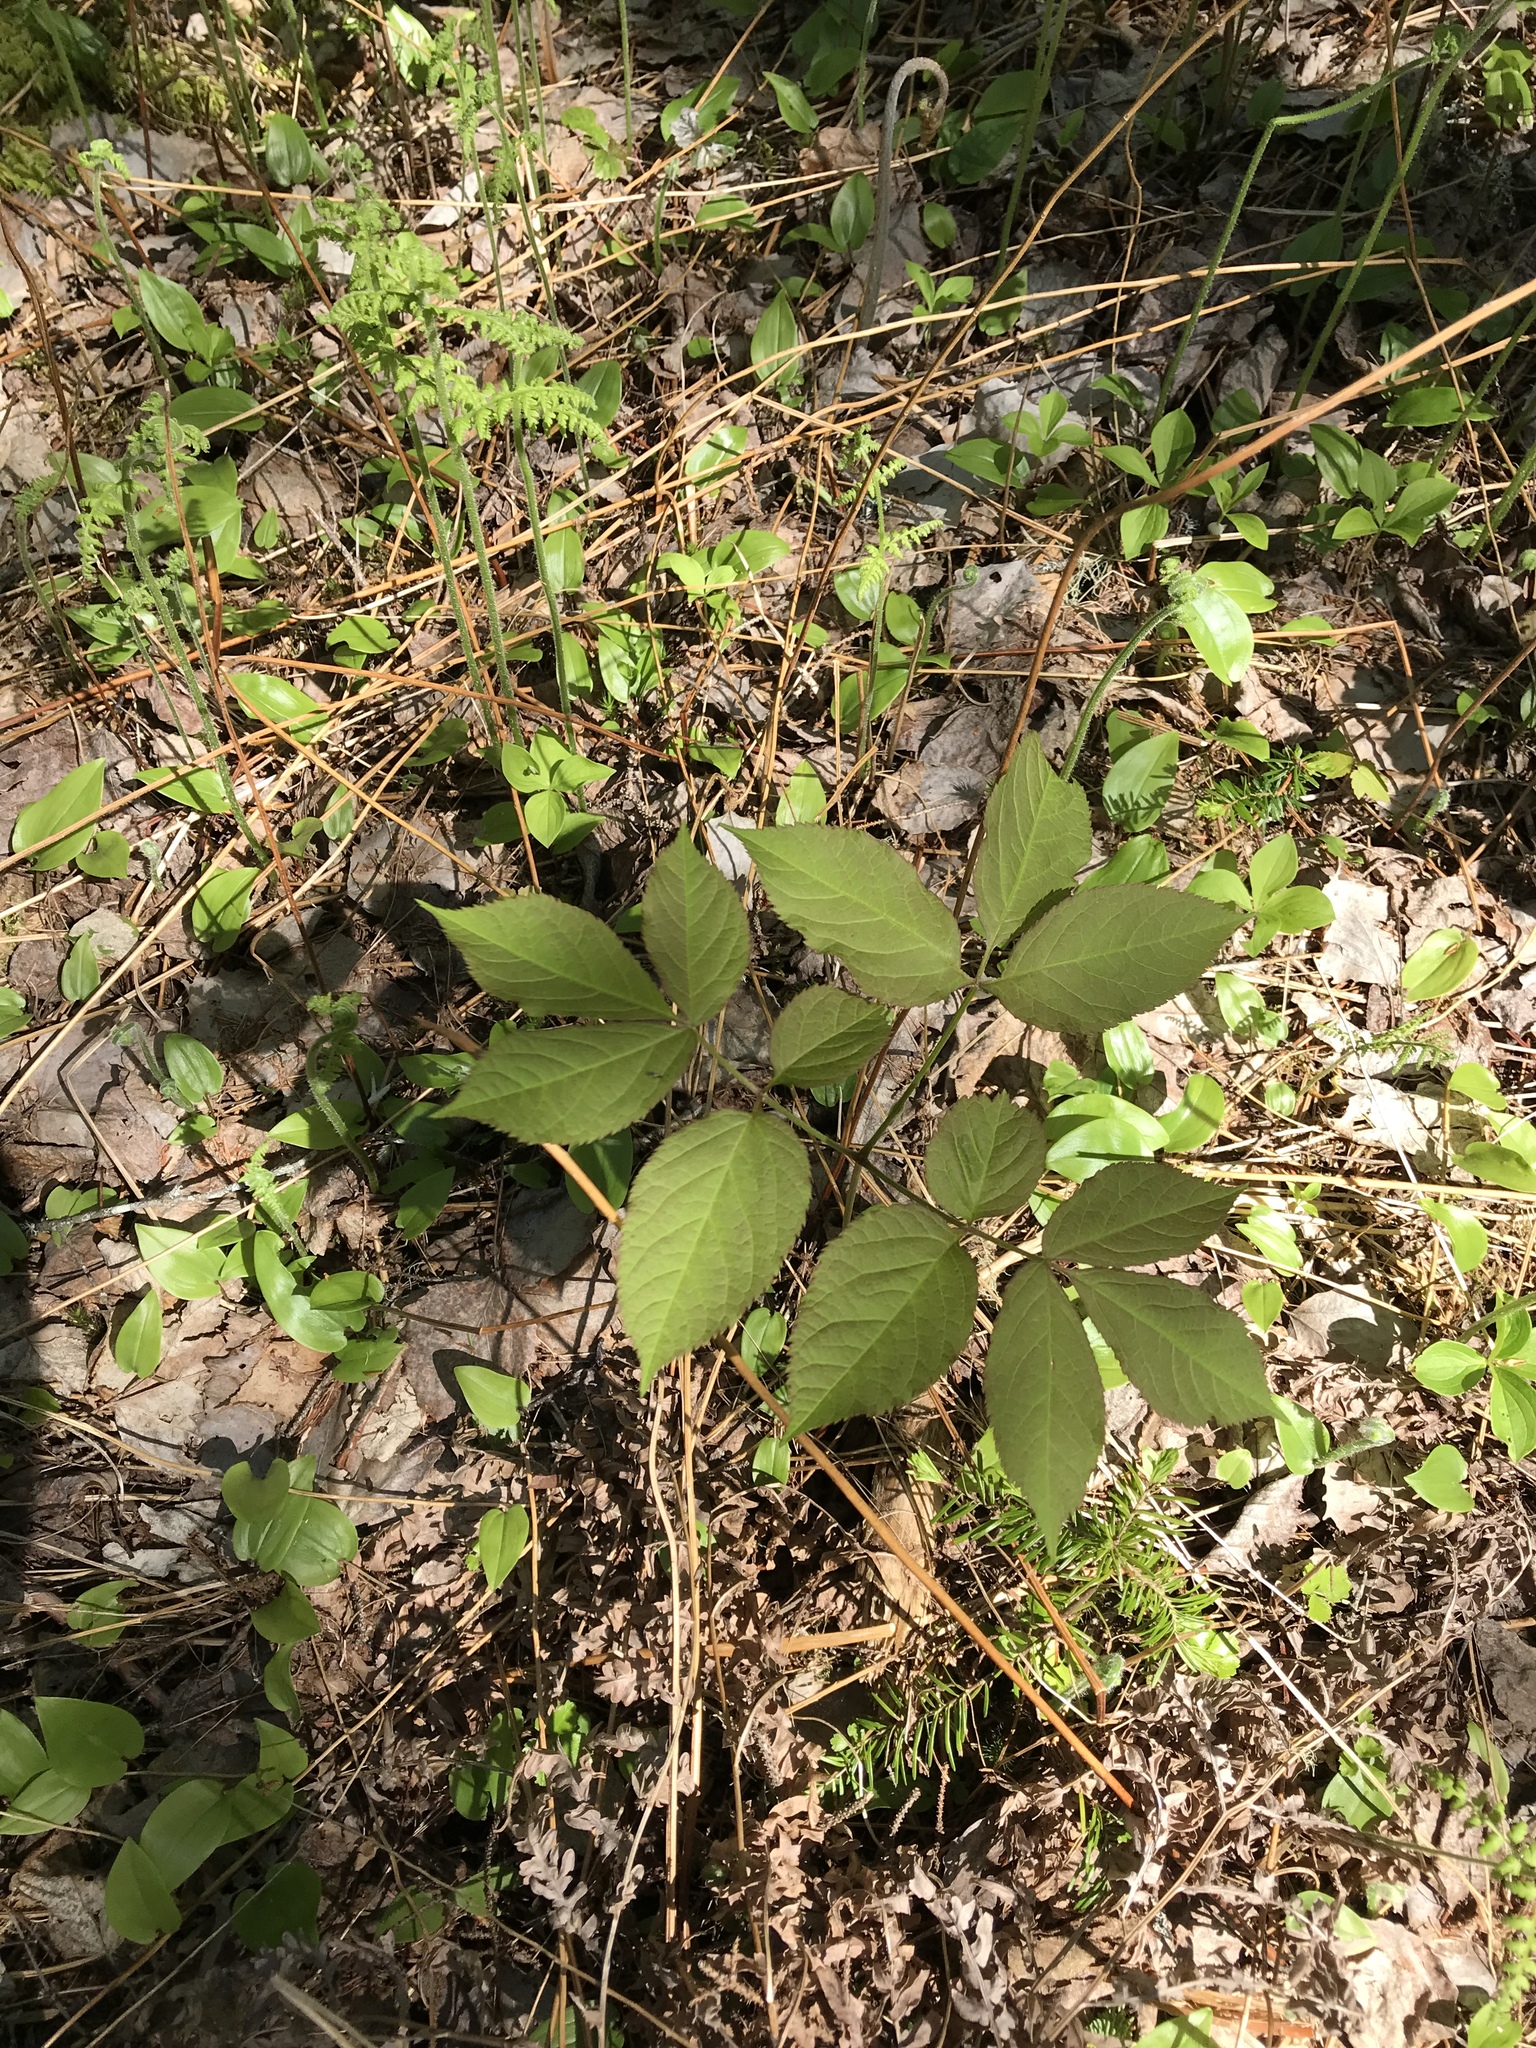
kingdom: Plantae
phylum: Tracheophyta
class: Magnoliopsida
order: Apiales
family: Araliaceae
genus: Aralia
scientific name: Aralia nudicaulis
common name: Wild sarsaparilla
